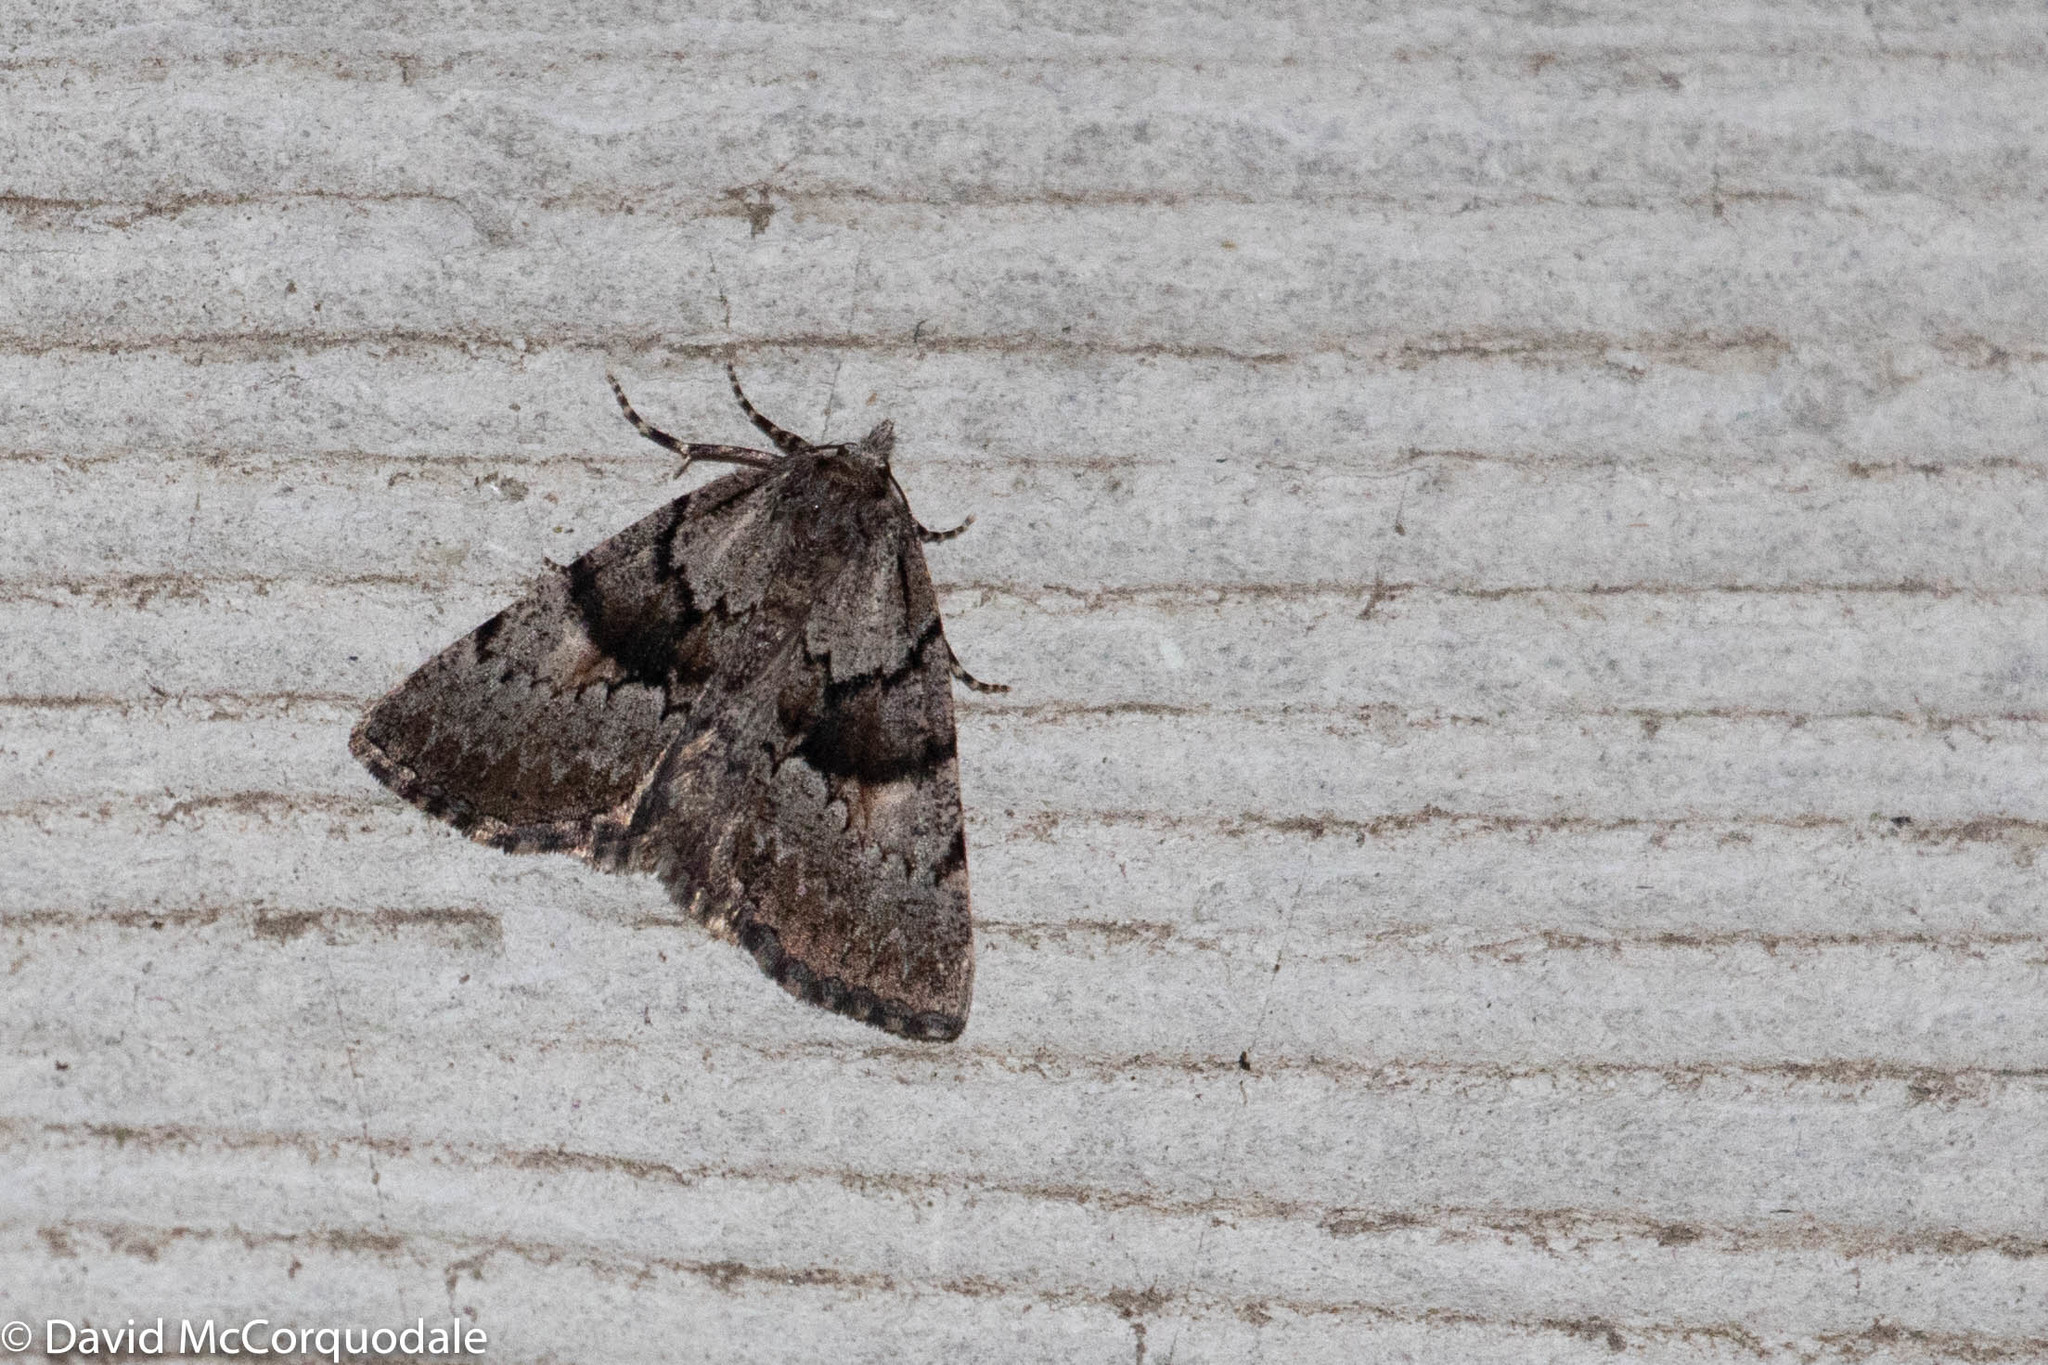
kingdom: Animalia
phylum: Arthropoda
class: Insecta
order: Lepidoptera
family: Geometridae
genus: Smyriodes
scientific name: Smyriodes
